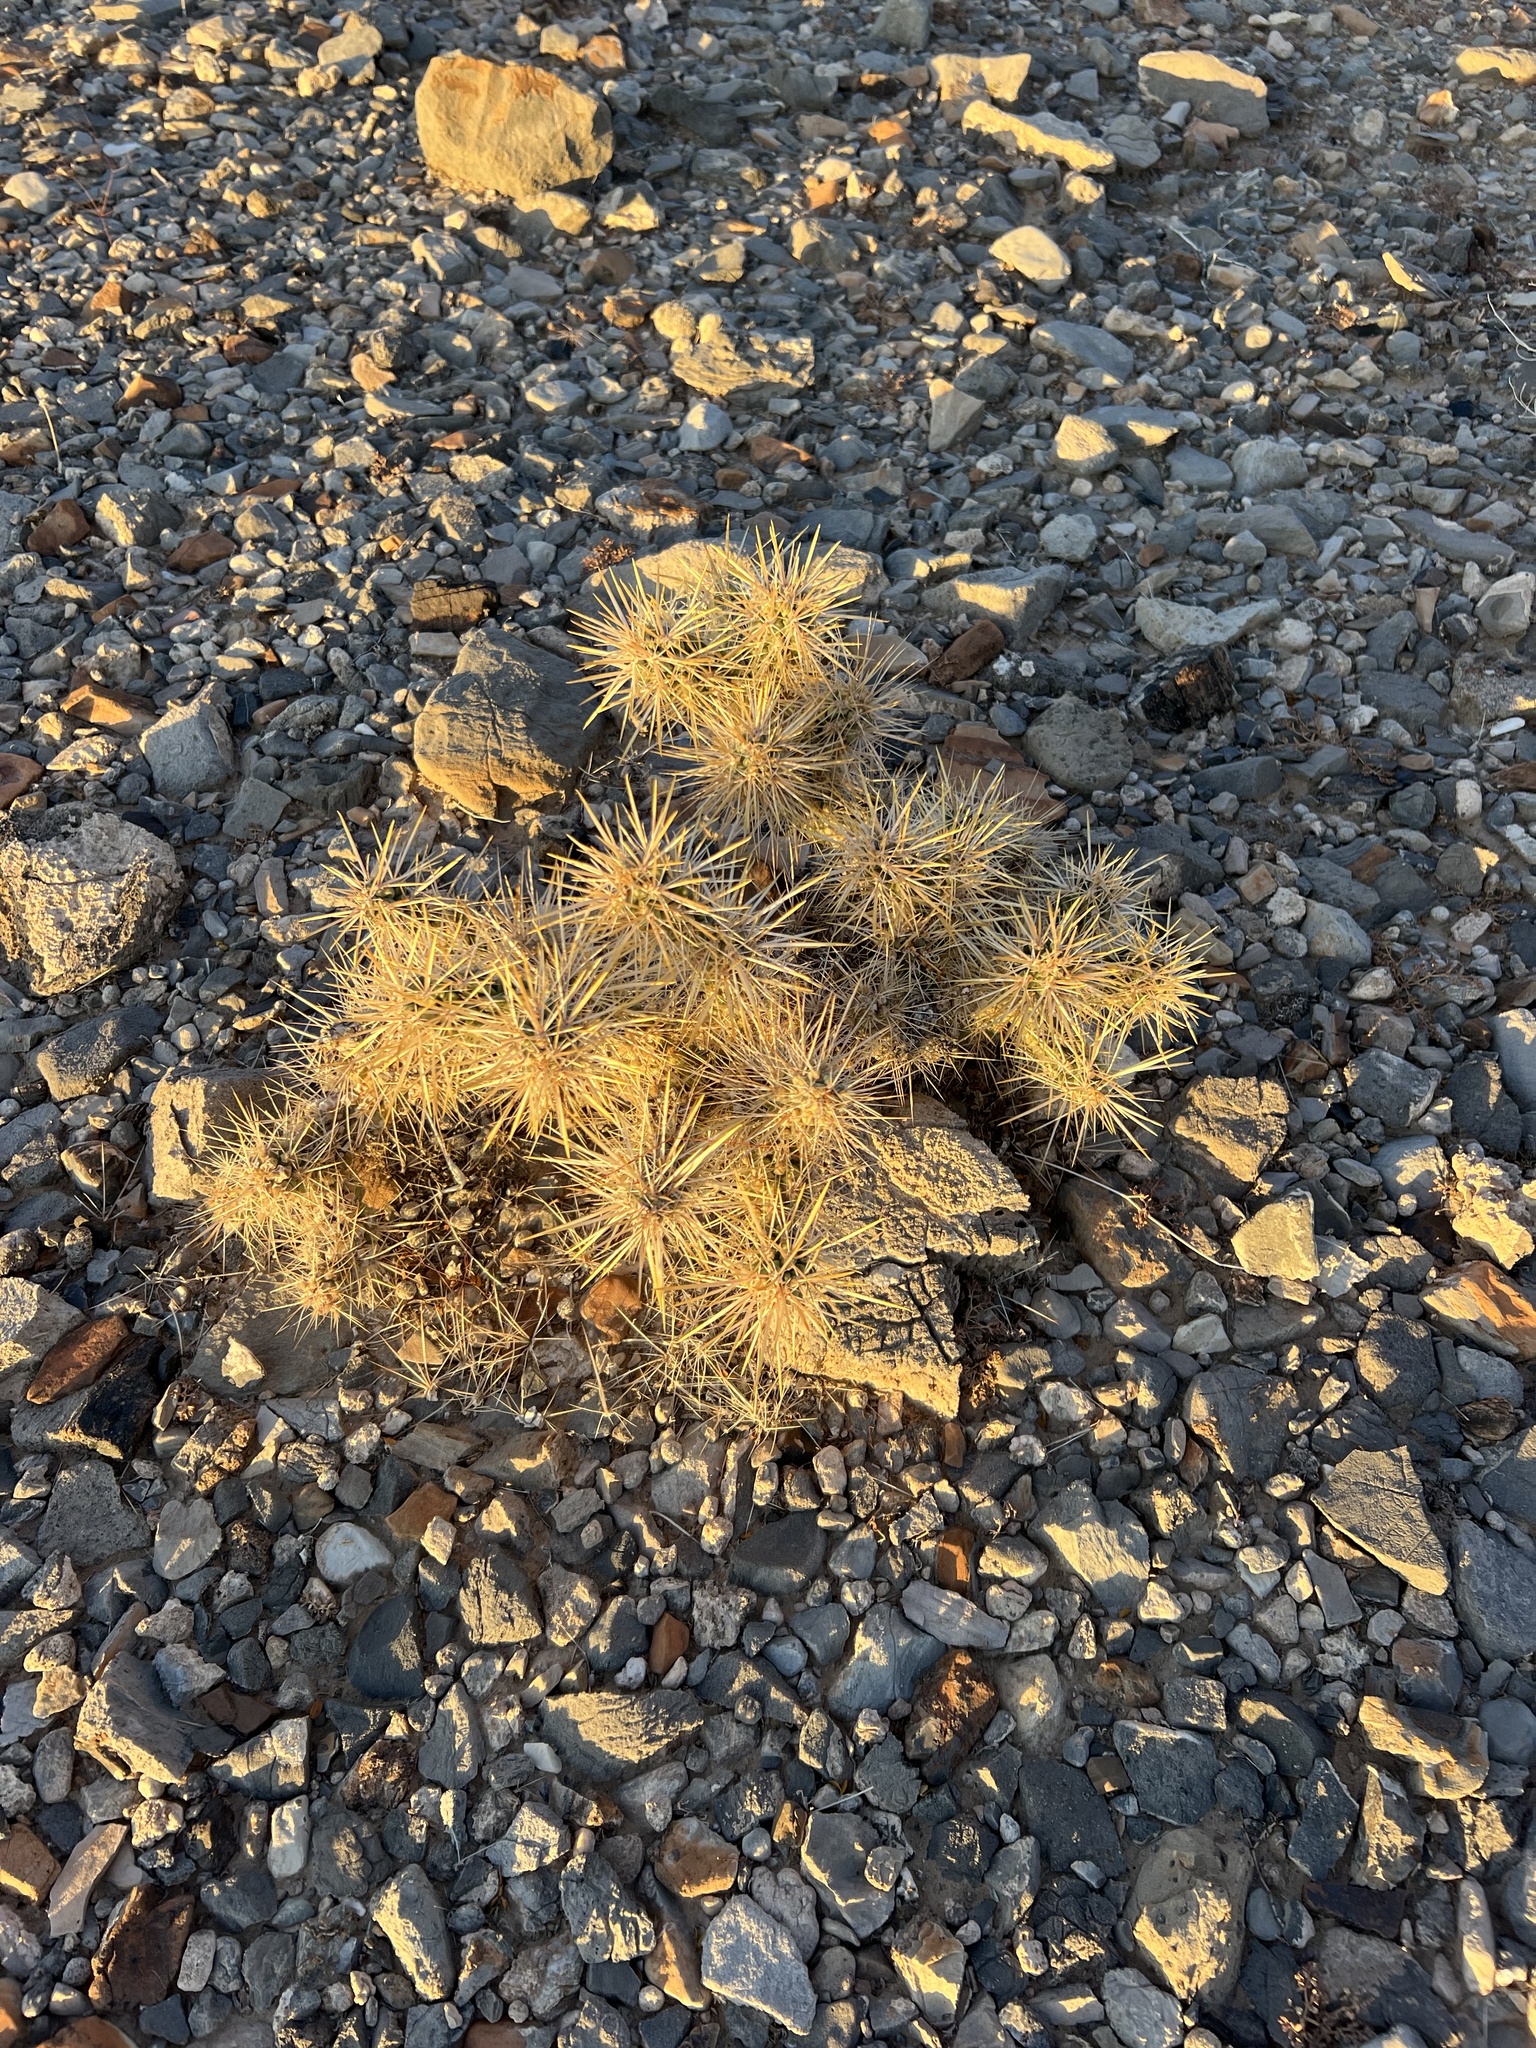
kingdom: Plantae
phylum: Tracheophyta
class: Magnoliopsida
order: Caryophyllales
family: Cactaceae
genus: Cylindropuntia
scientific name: Cylindropuntia echinocarpa
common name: Ground cholla
